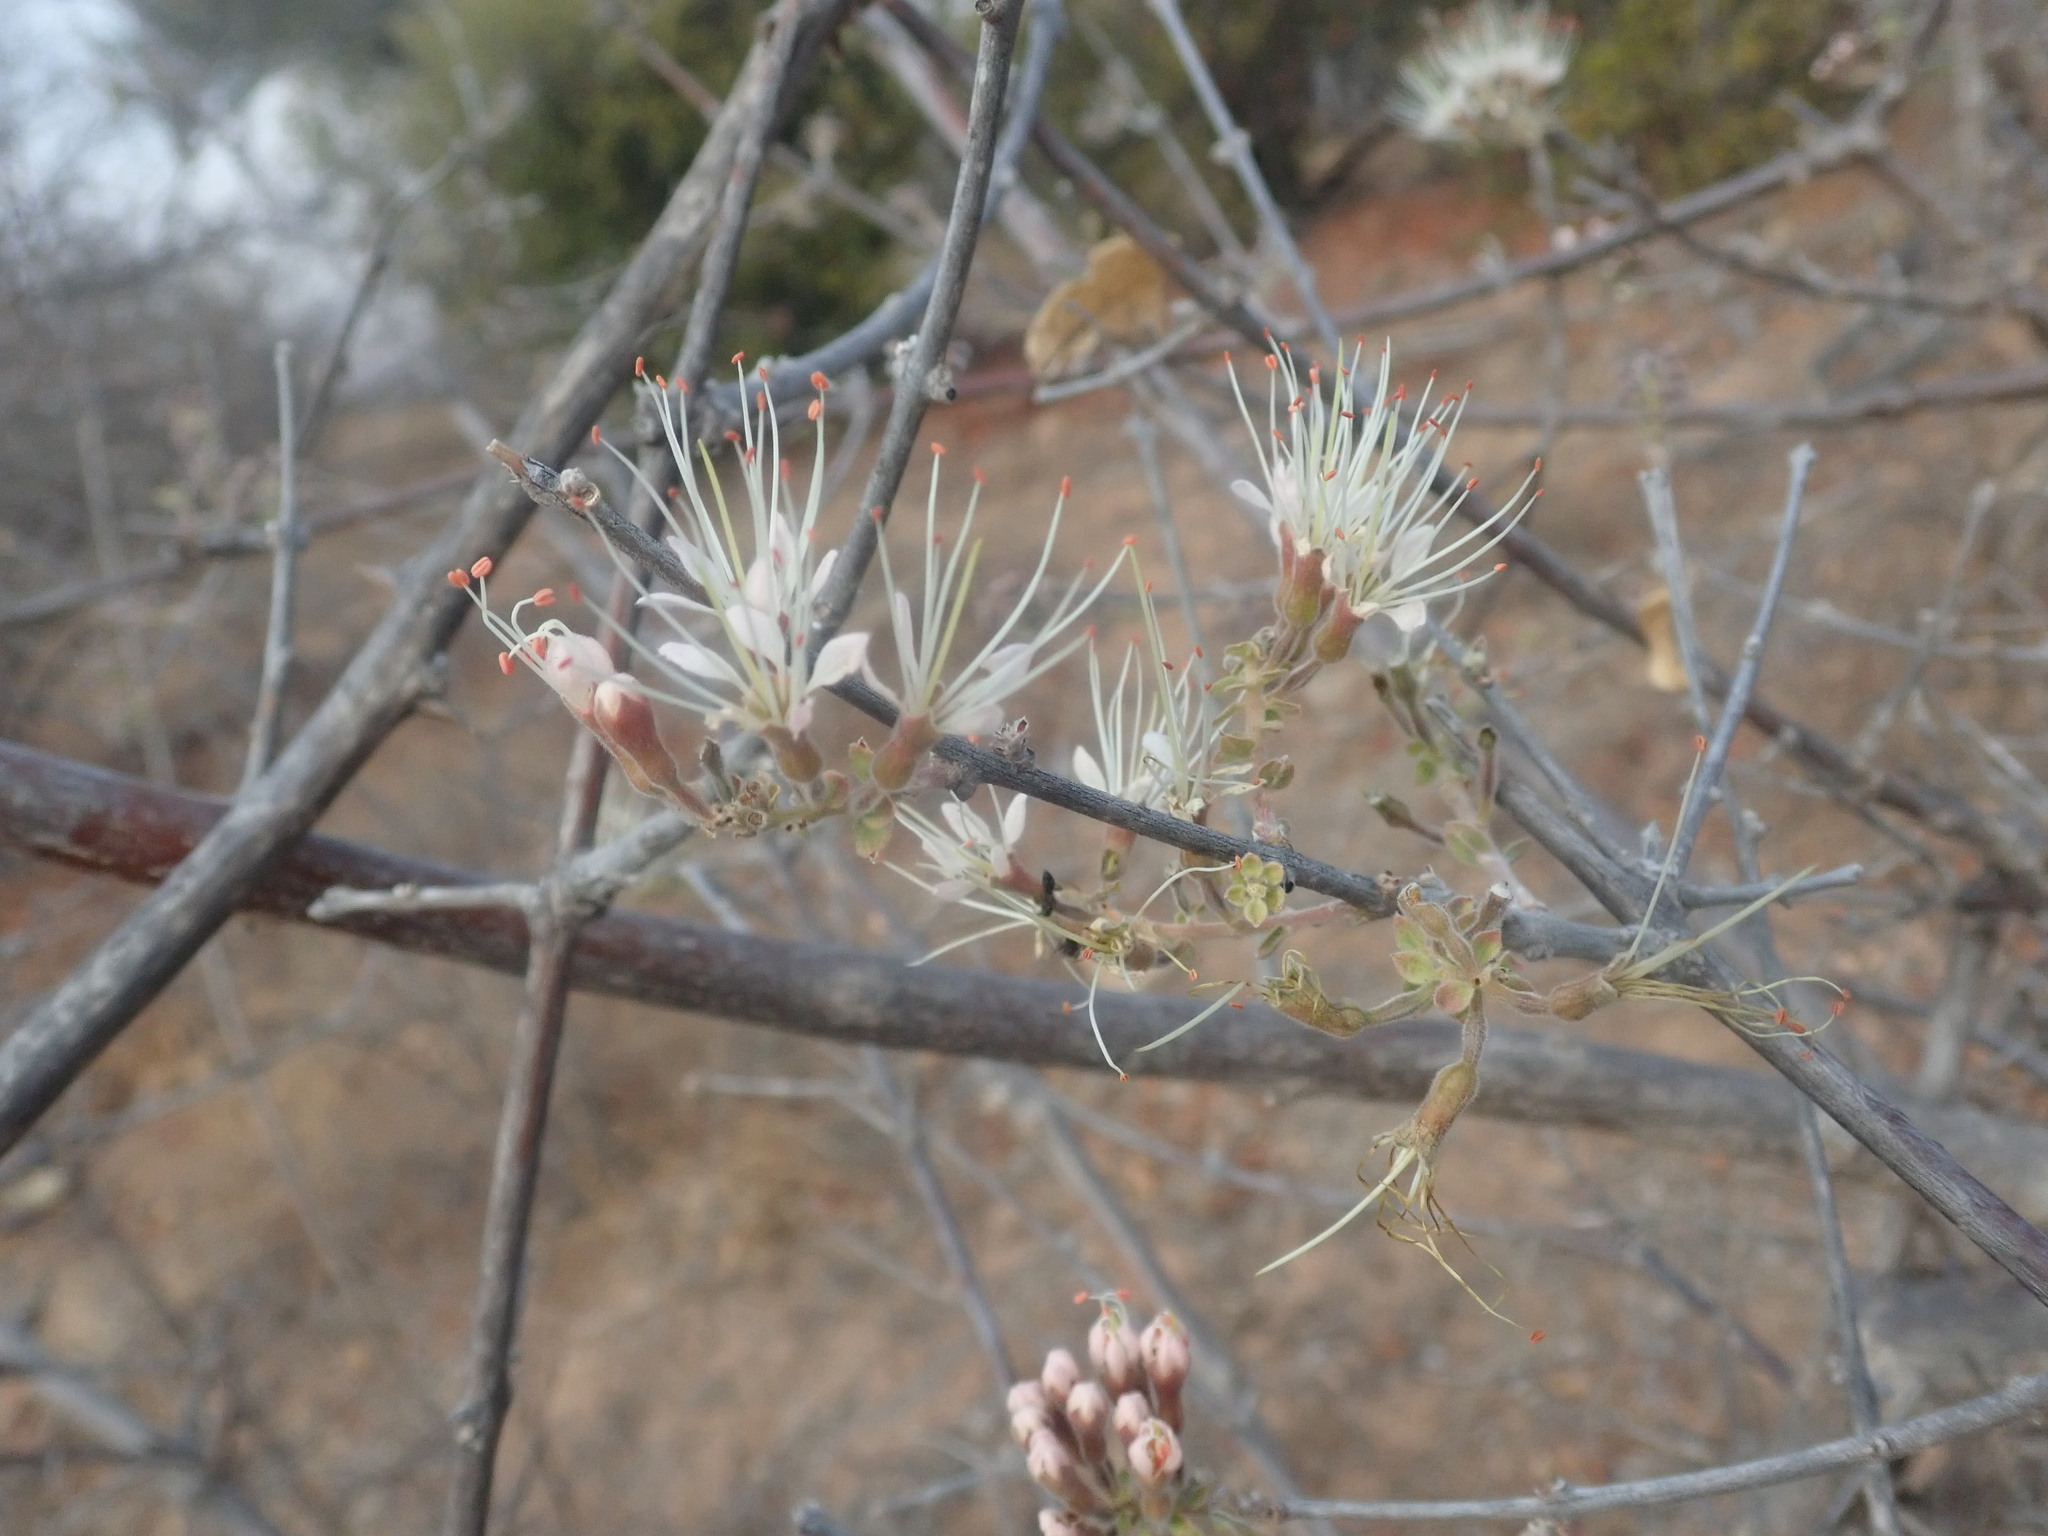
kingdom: Plantae
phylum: Tracheophyta
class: Magnoliopsida
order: Myrtales
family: Combretaceae
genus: Combretum
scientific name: Combretum mossambicense
